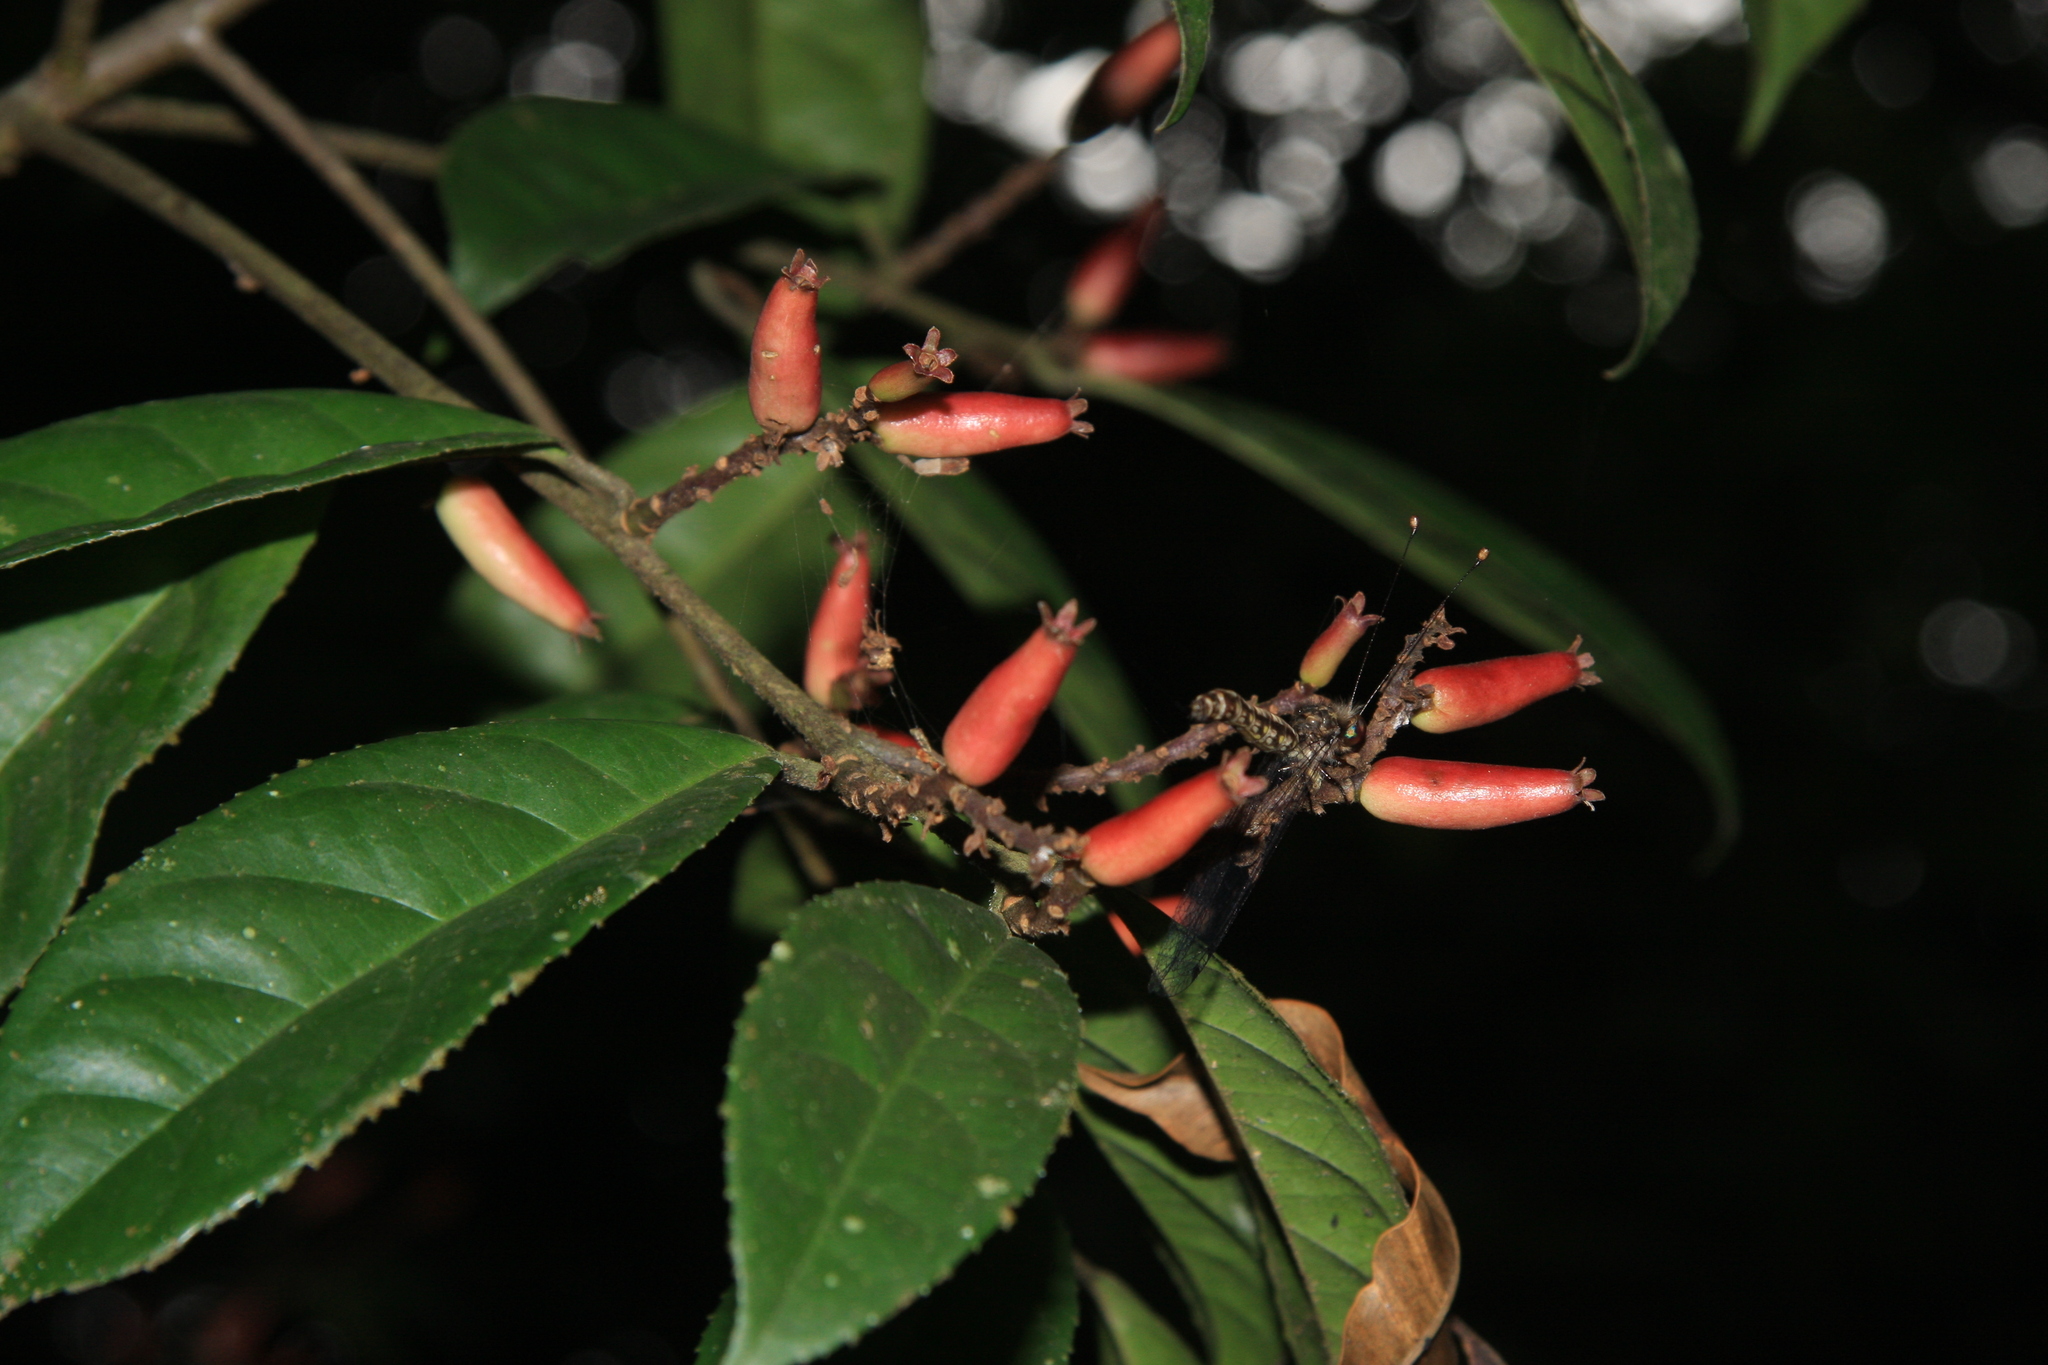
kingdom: Plantae
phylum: Tracheophyta
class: Magnoliopsida
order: Ericales
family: Symplocaceae
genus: Symplocos
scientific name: Symplocos macrophylla
